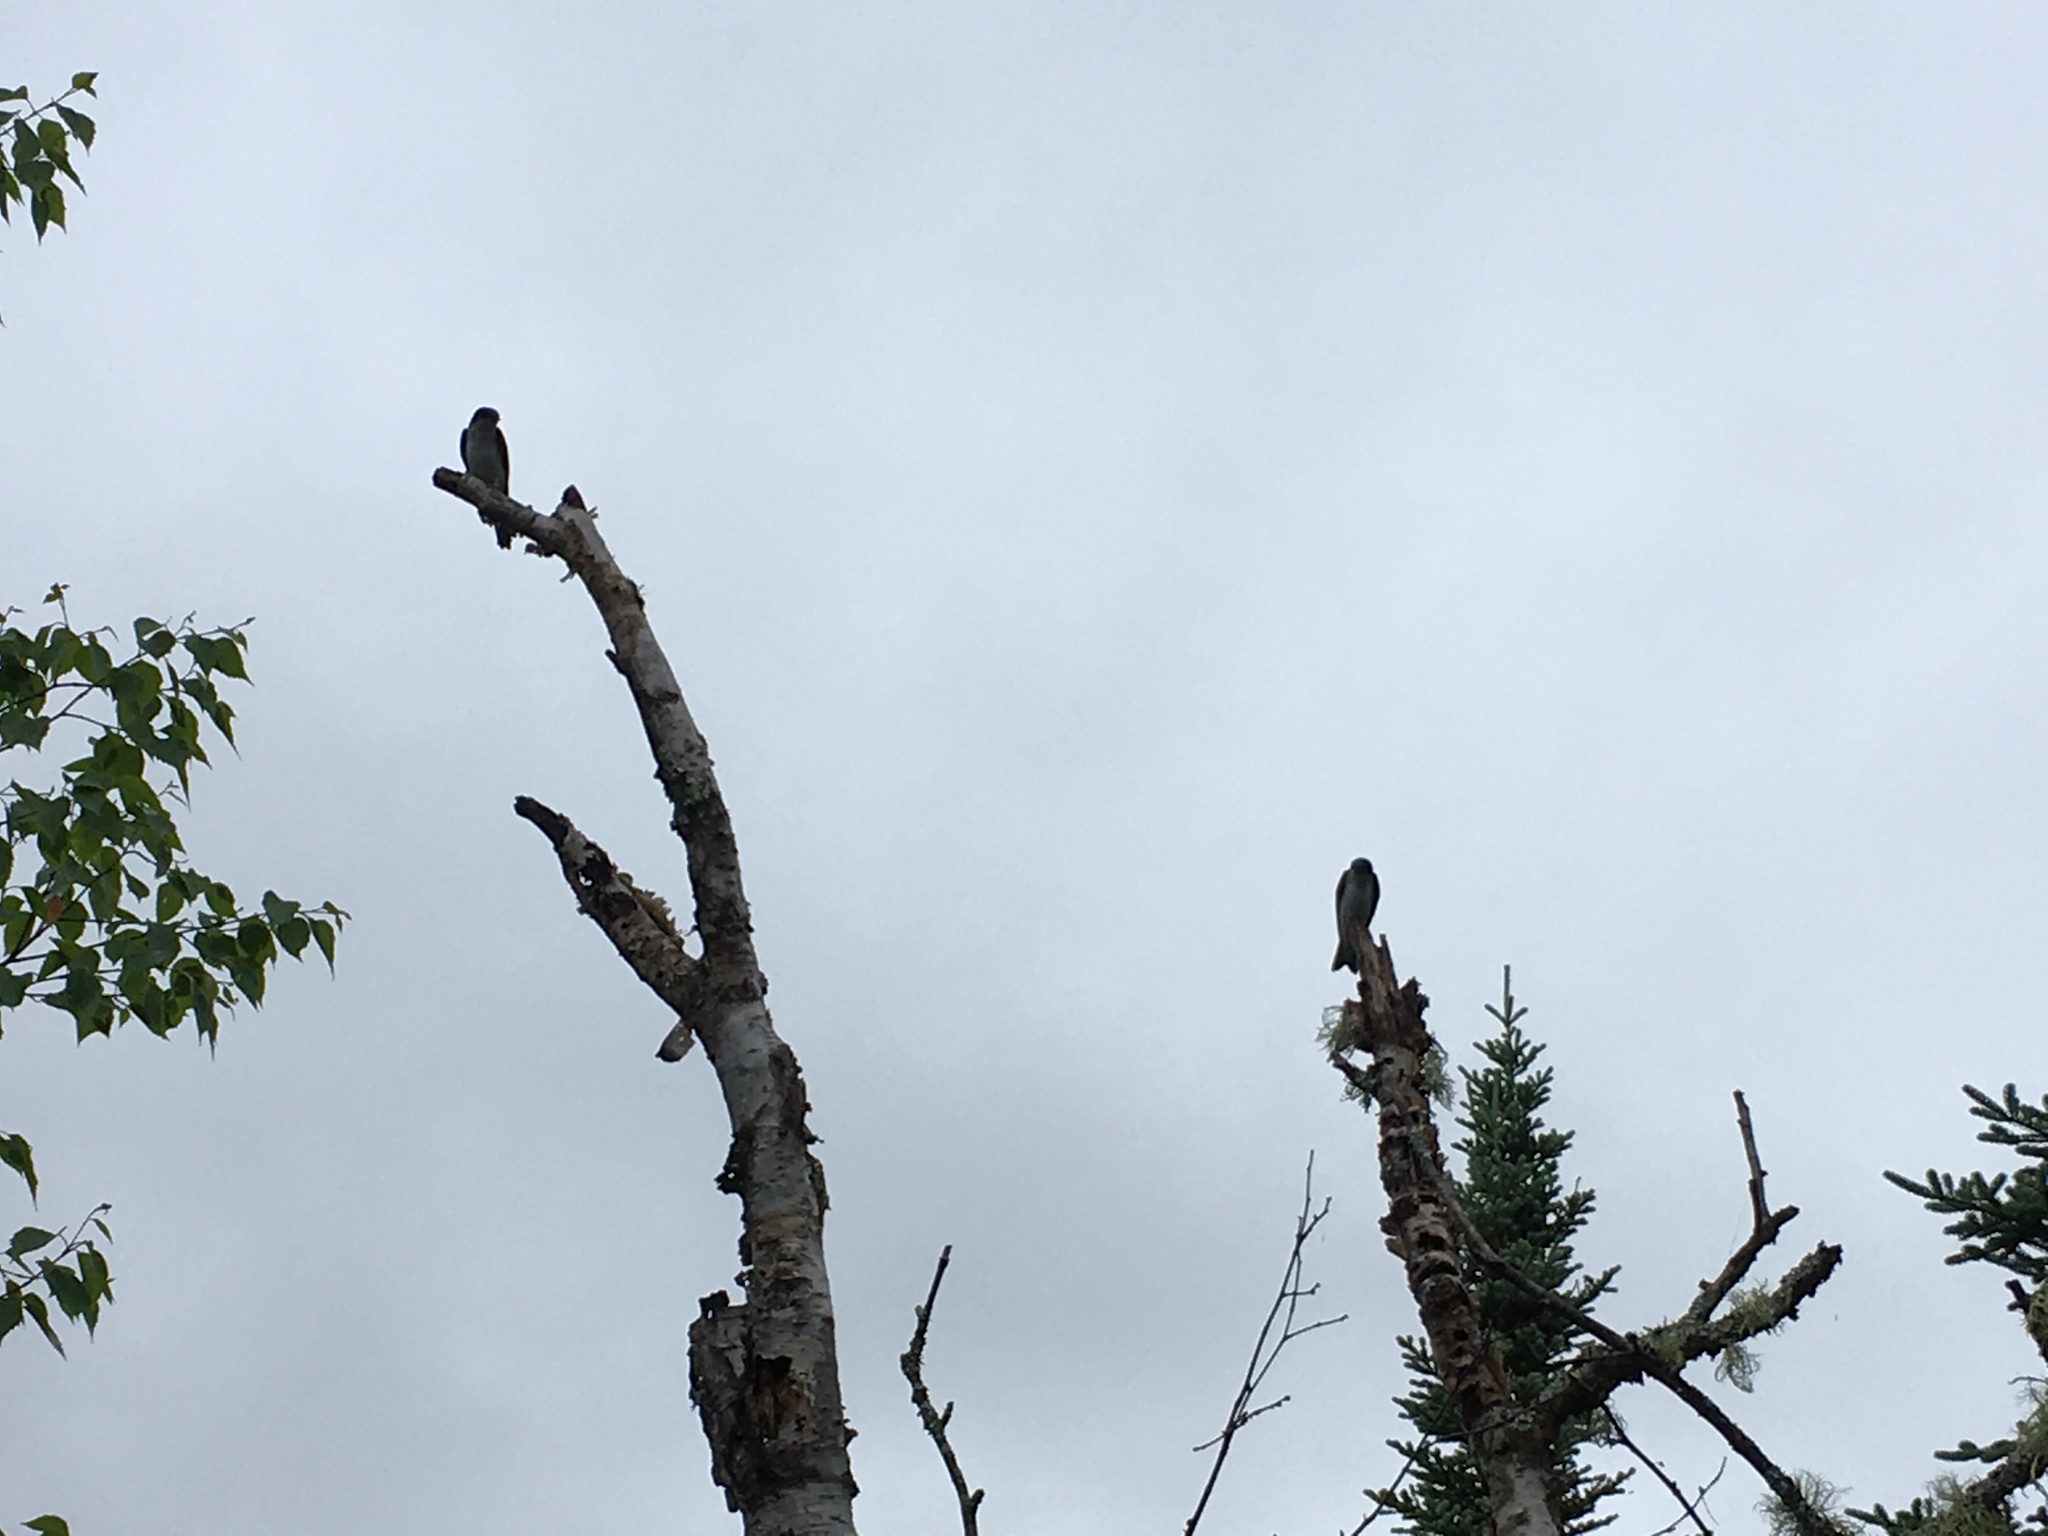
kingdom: Animalia
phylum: Chordata
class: Aves
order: Passeriformes
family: Hirundinidae
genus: Tachycineta
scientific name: Tachycineta bicolor
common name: Tree swallow
